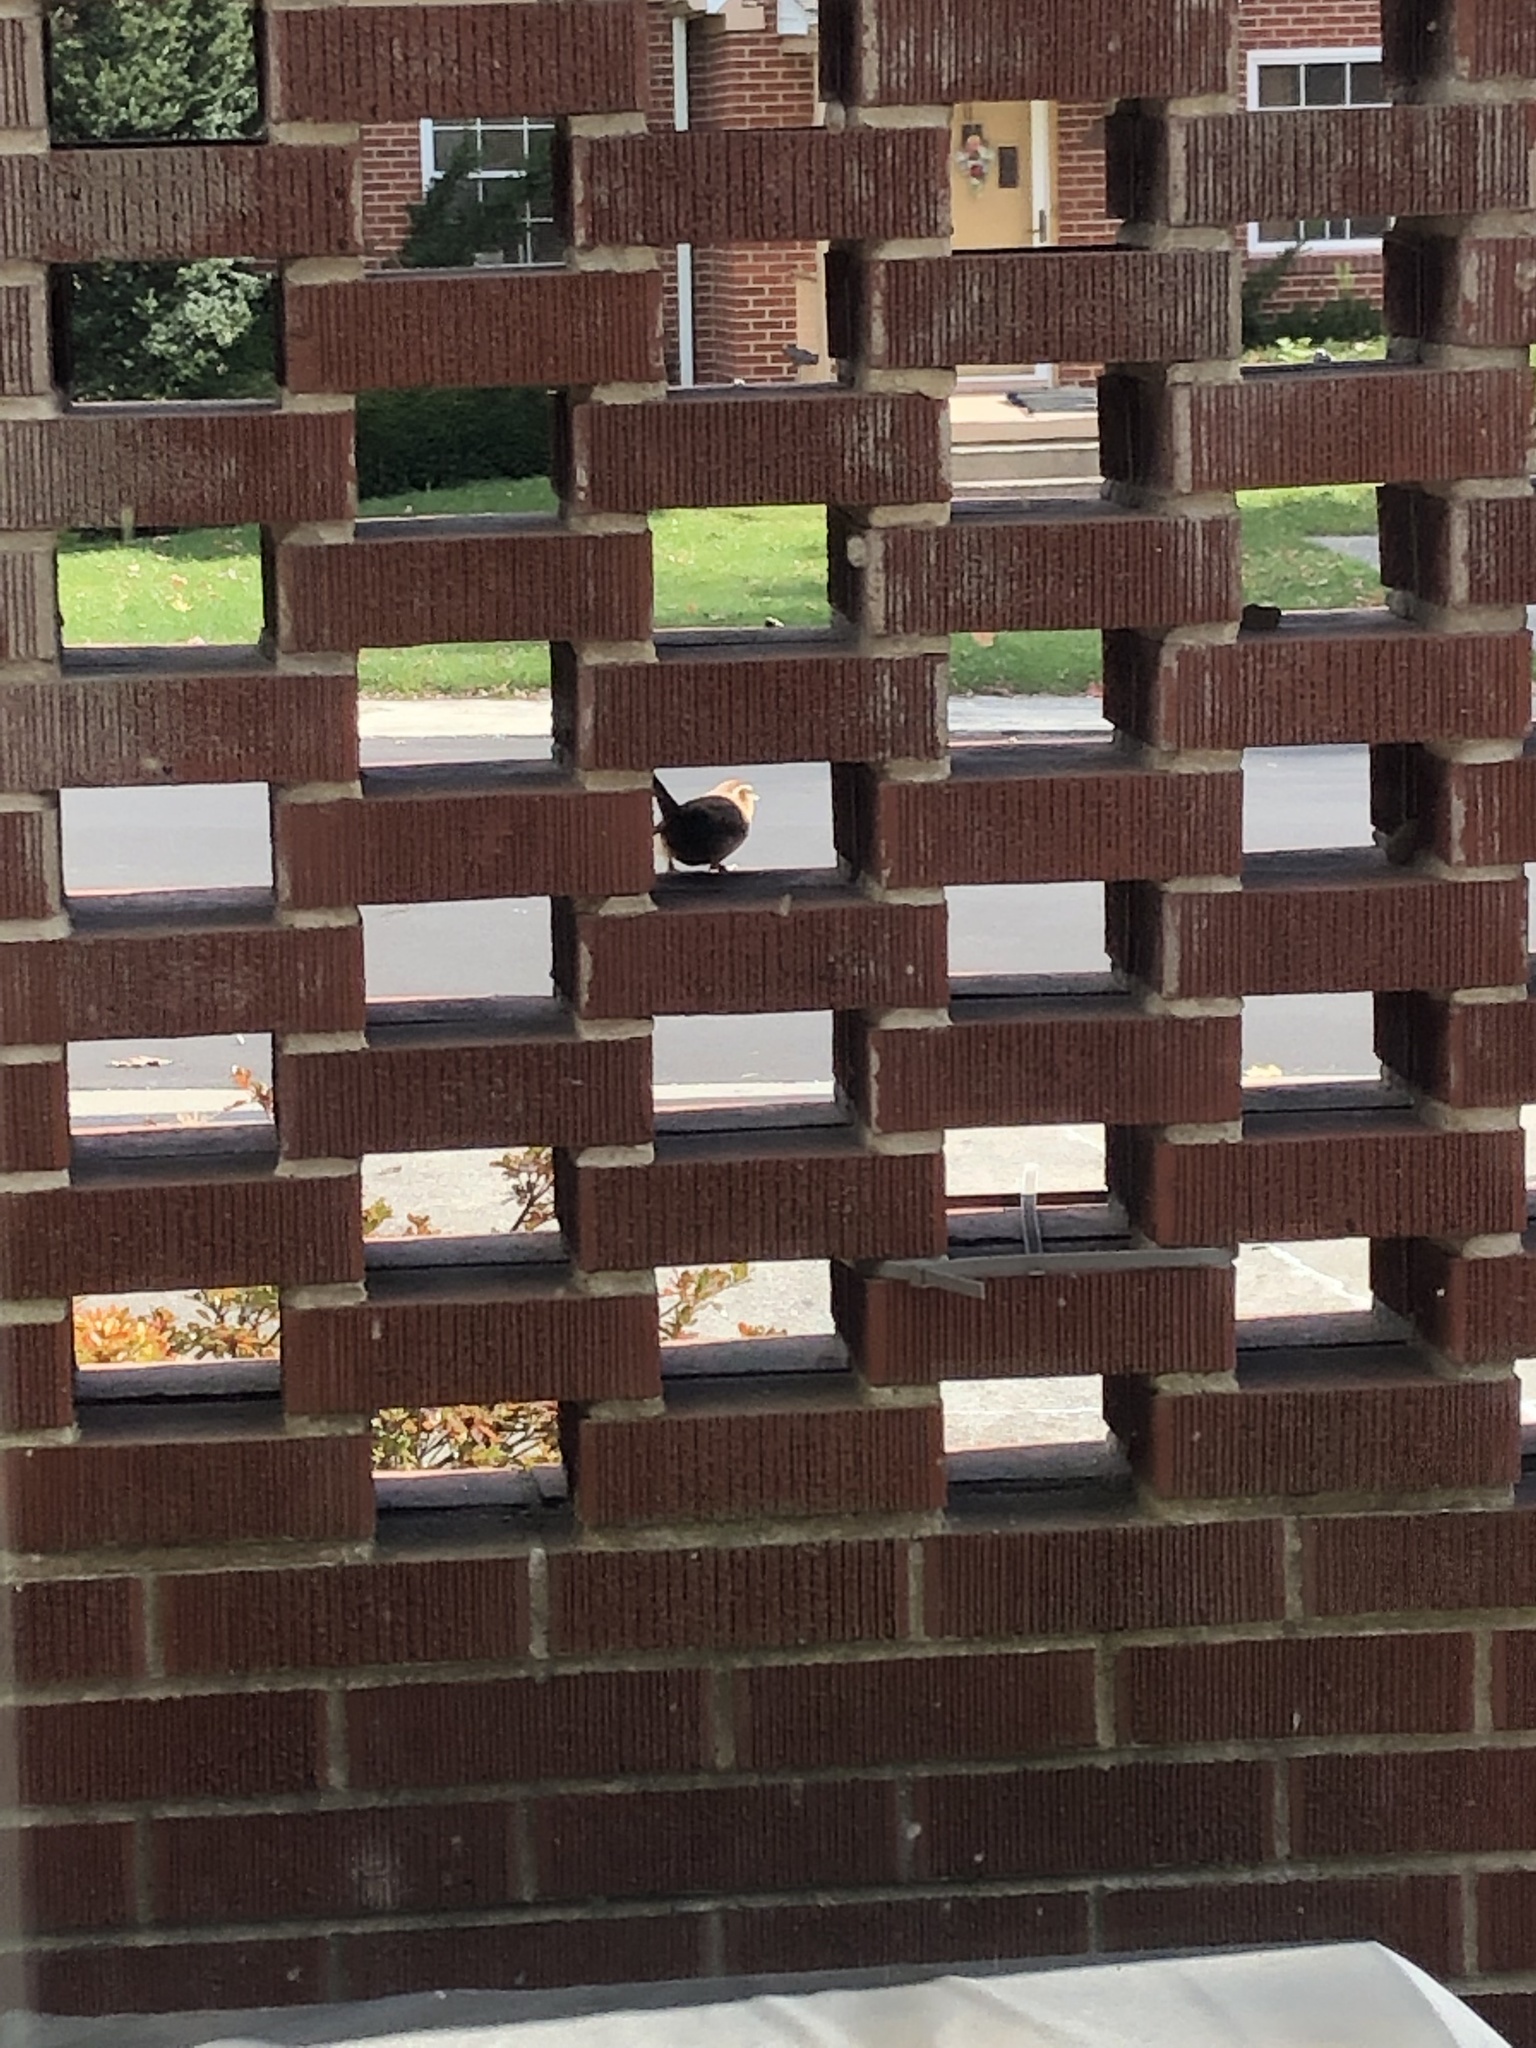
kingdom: Animalia
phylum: Chordata
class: Aves
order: Passeriformes
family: Troglodytidae
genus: Thryothorus
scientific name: Thryothorus ludovicianus
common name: Carolina wren
